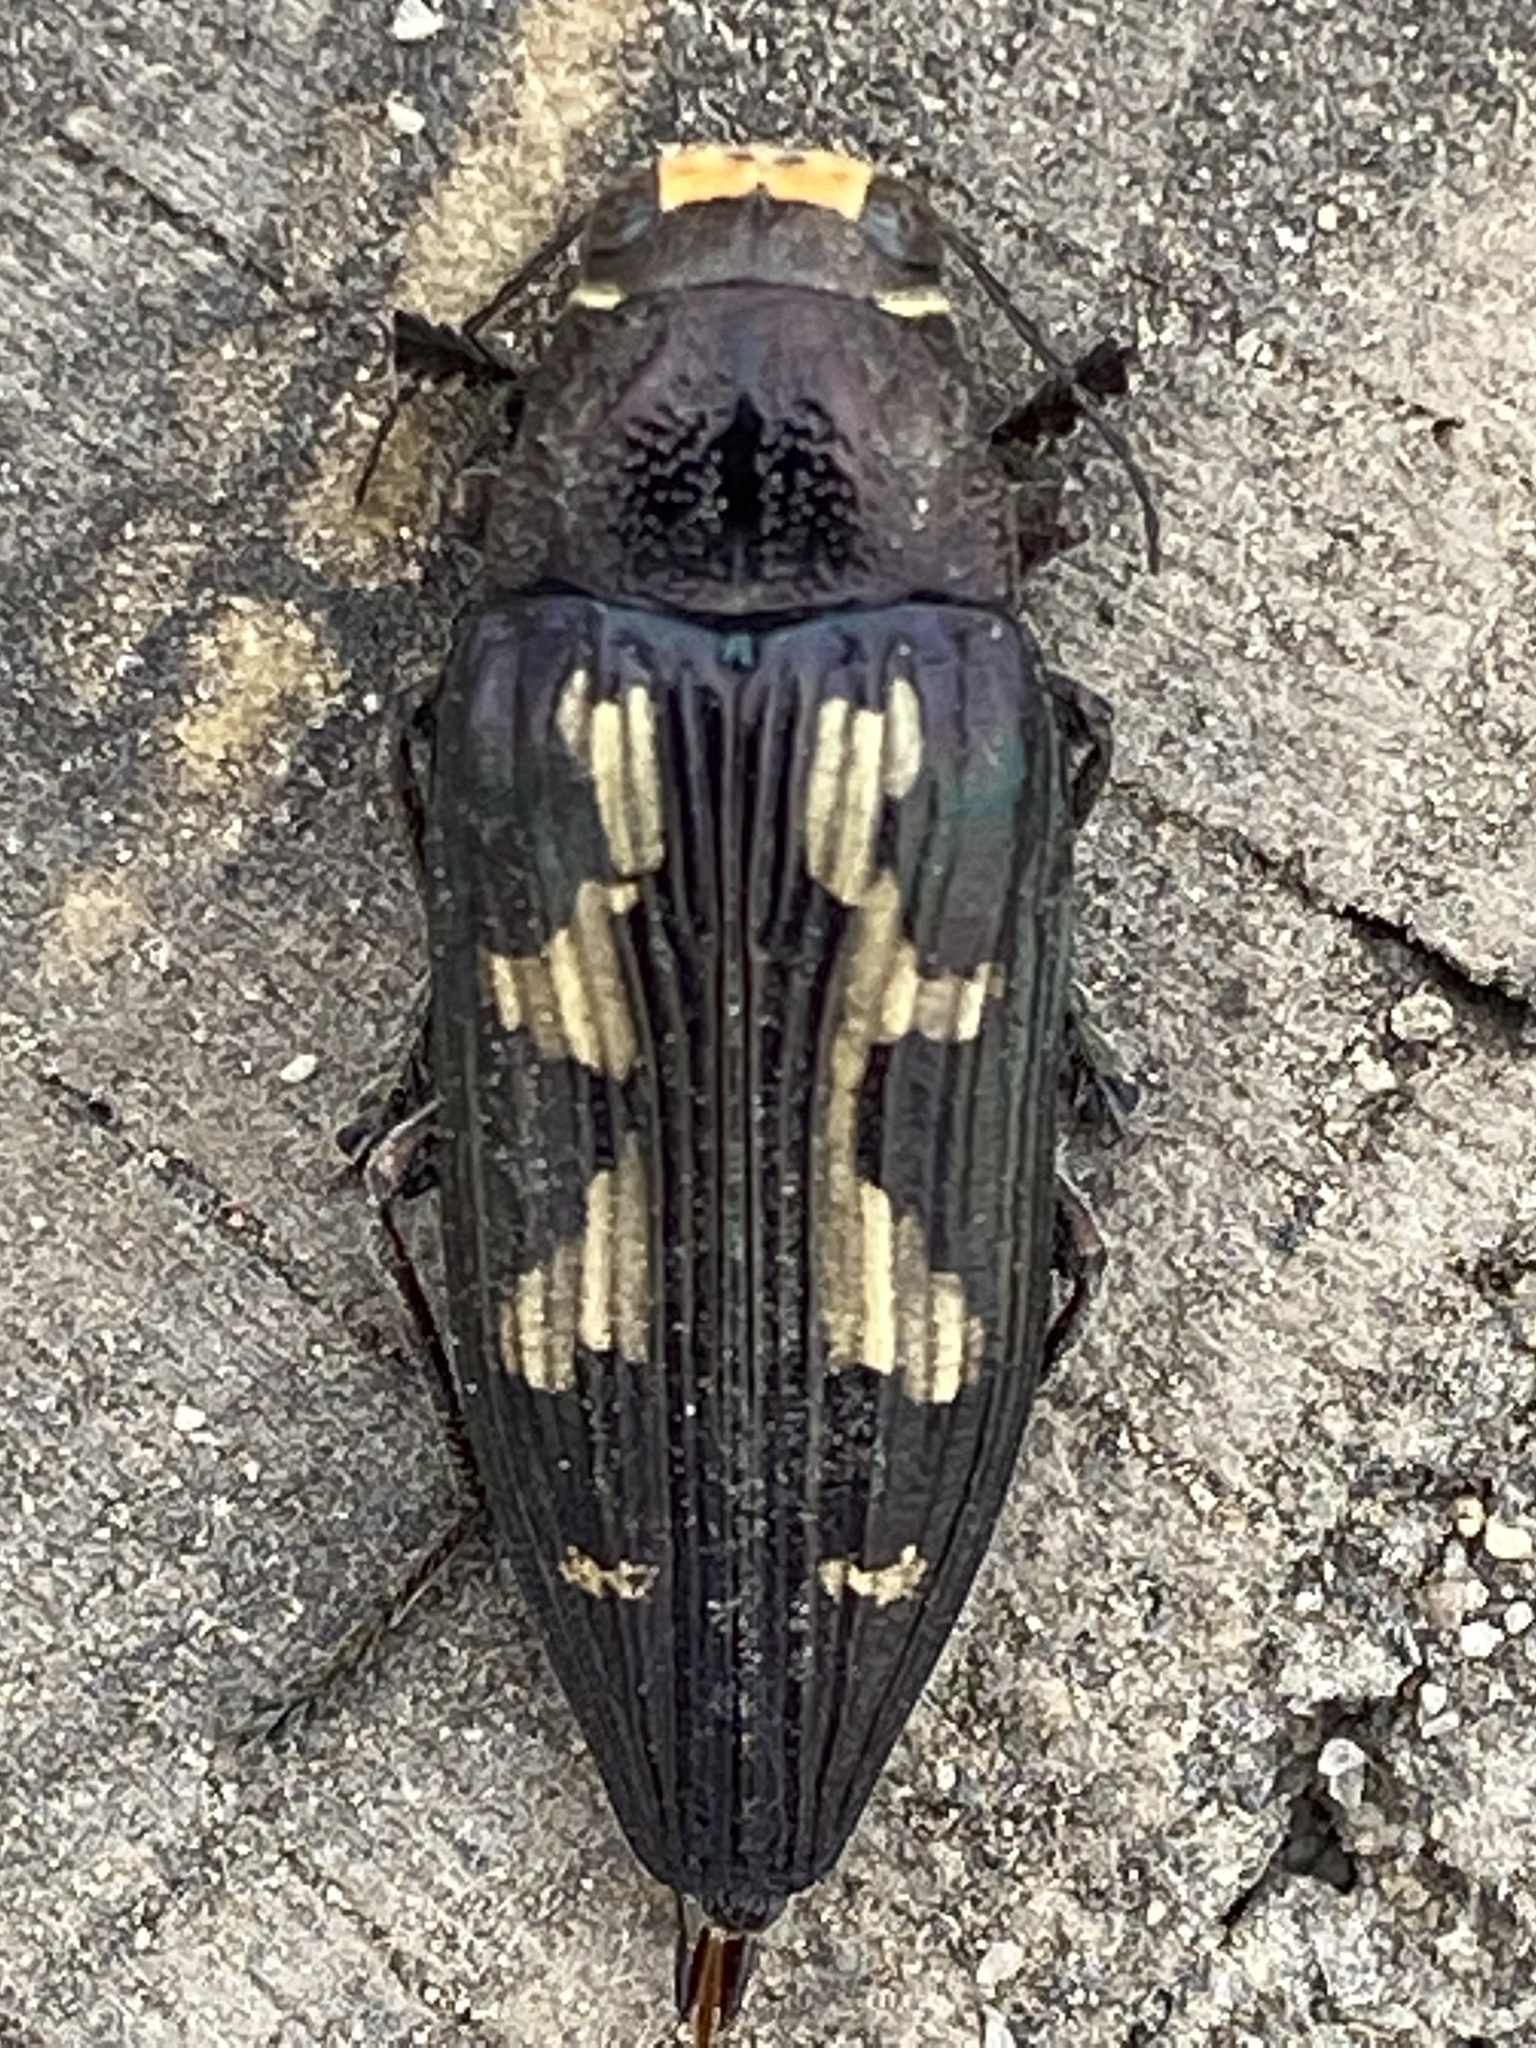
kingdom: Animalia
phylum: Arthropoda
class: Insecta
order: Coleoptera
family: Buprestidae
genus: Buprestis
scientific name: Buprestis laeviventris
